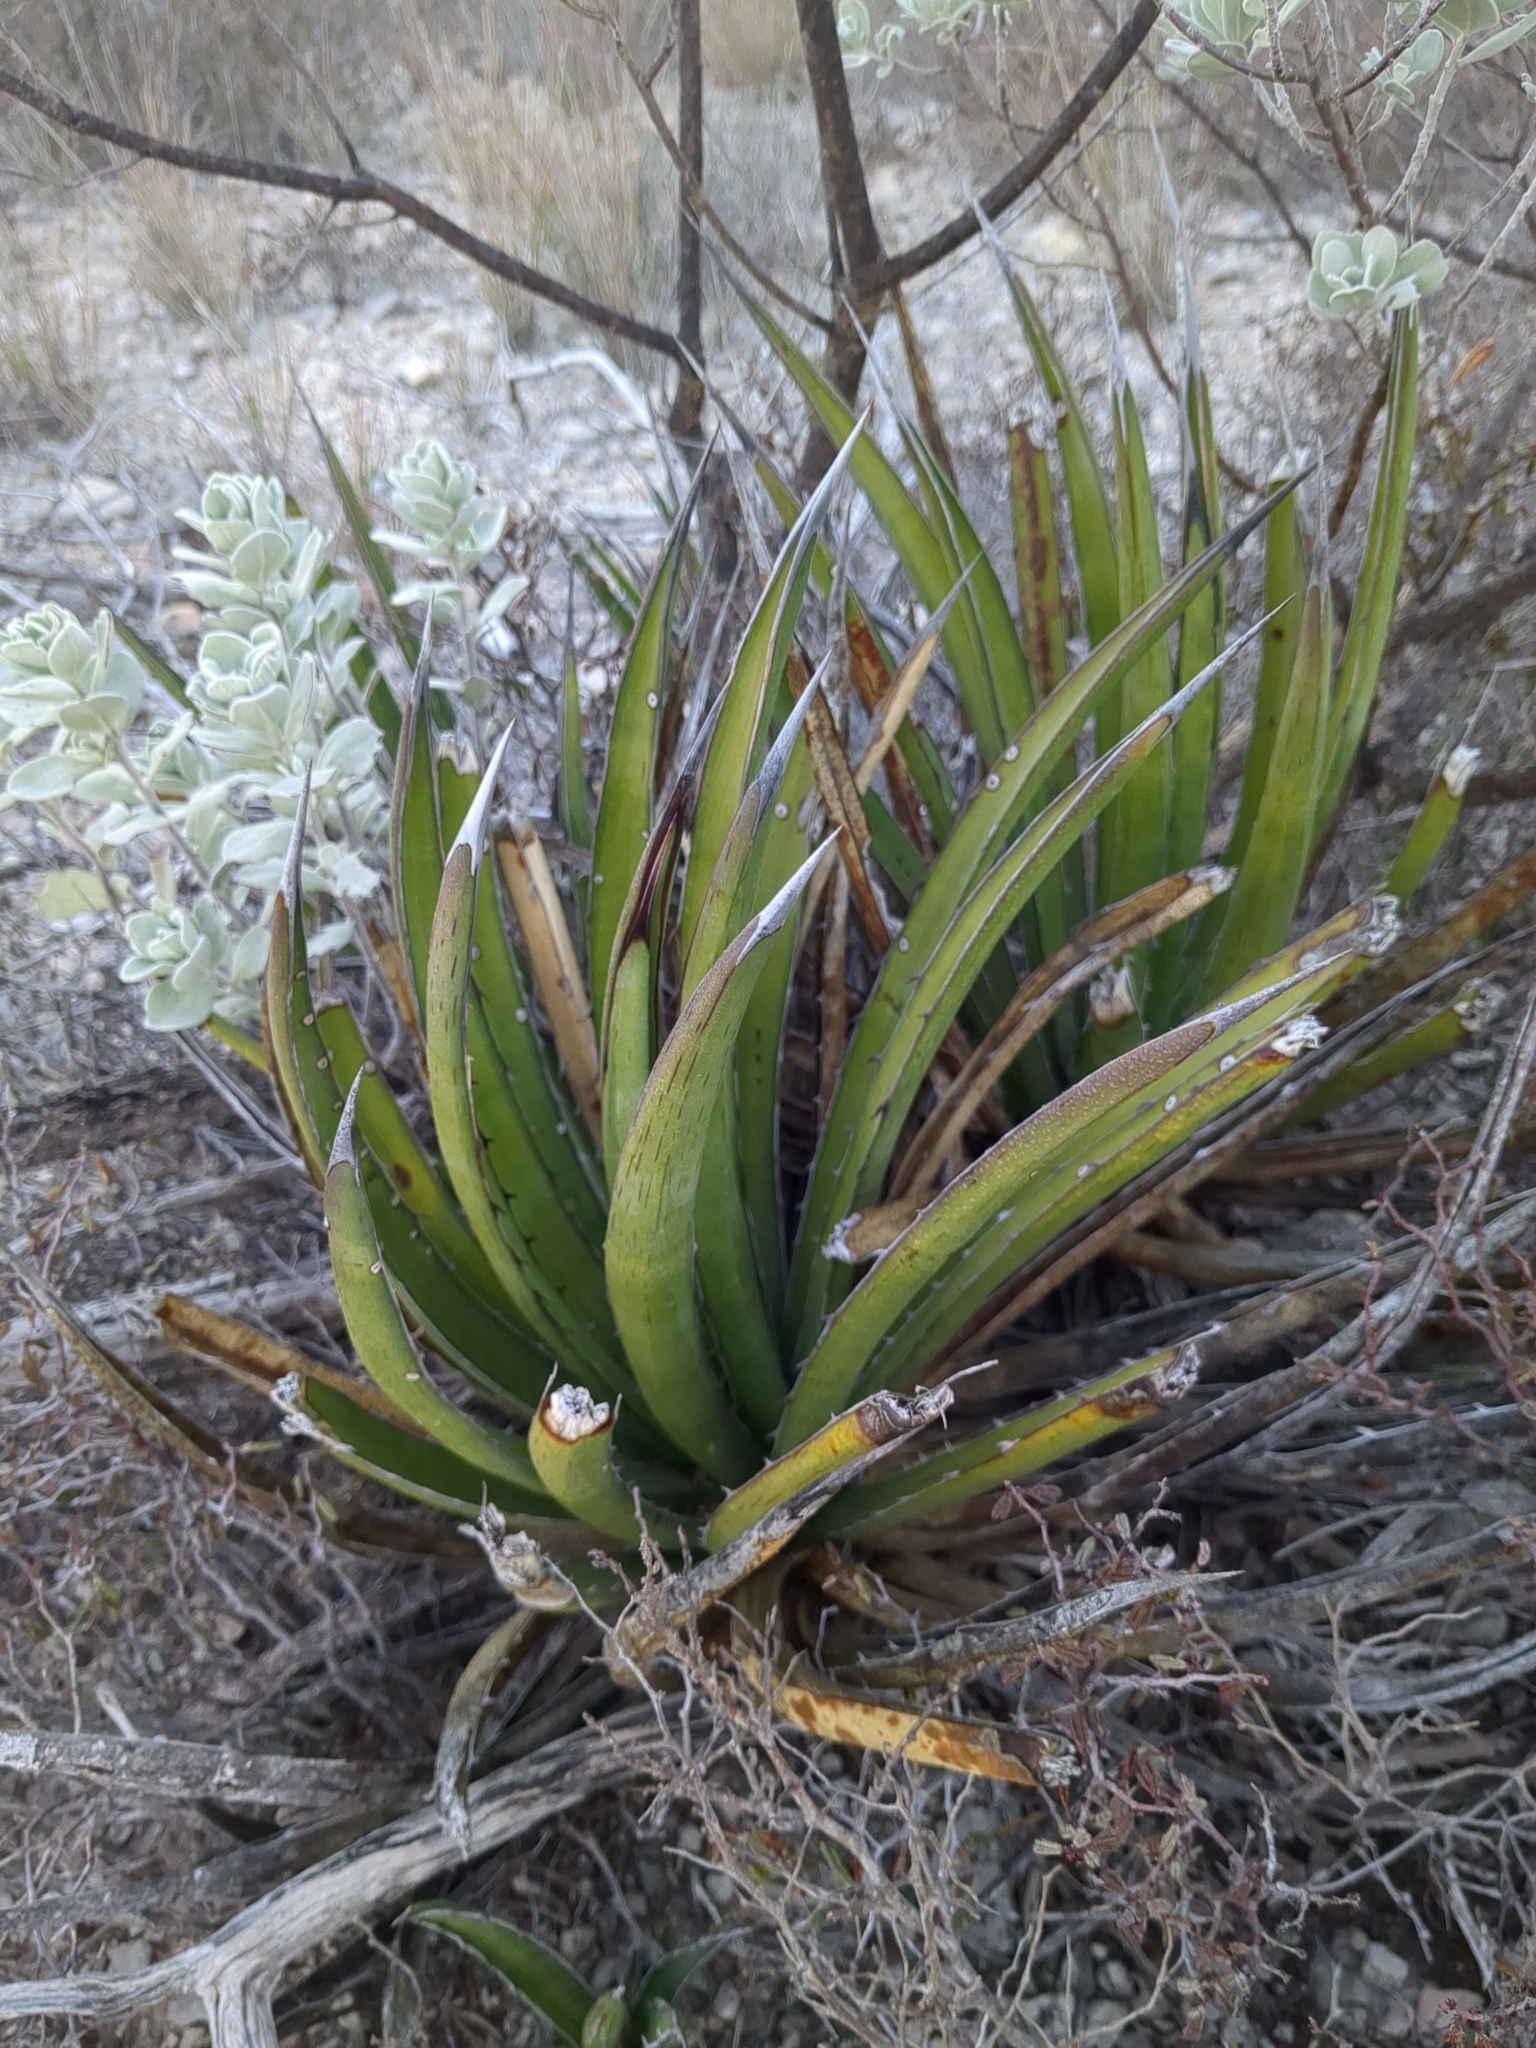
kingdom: Plantae
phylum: Tracheophyta
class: Liliopsida
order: Asparagales
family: Asparagaceae
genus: Agave
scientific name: Agave lechuguilla
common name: Lecheguilla agave
